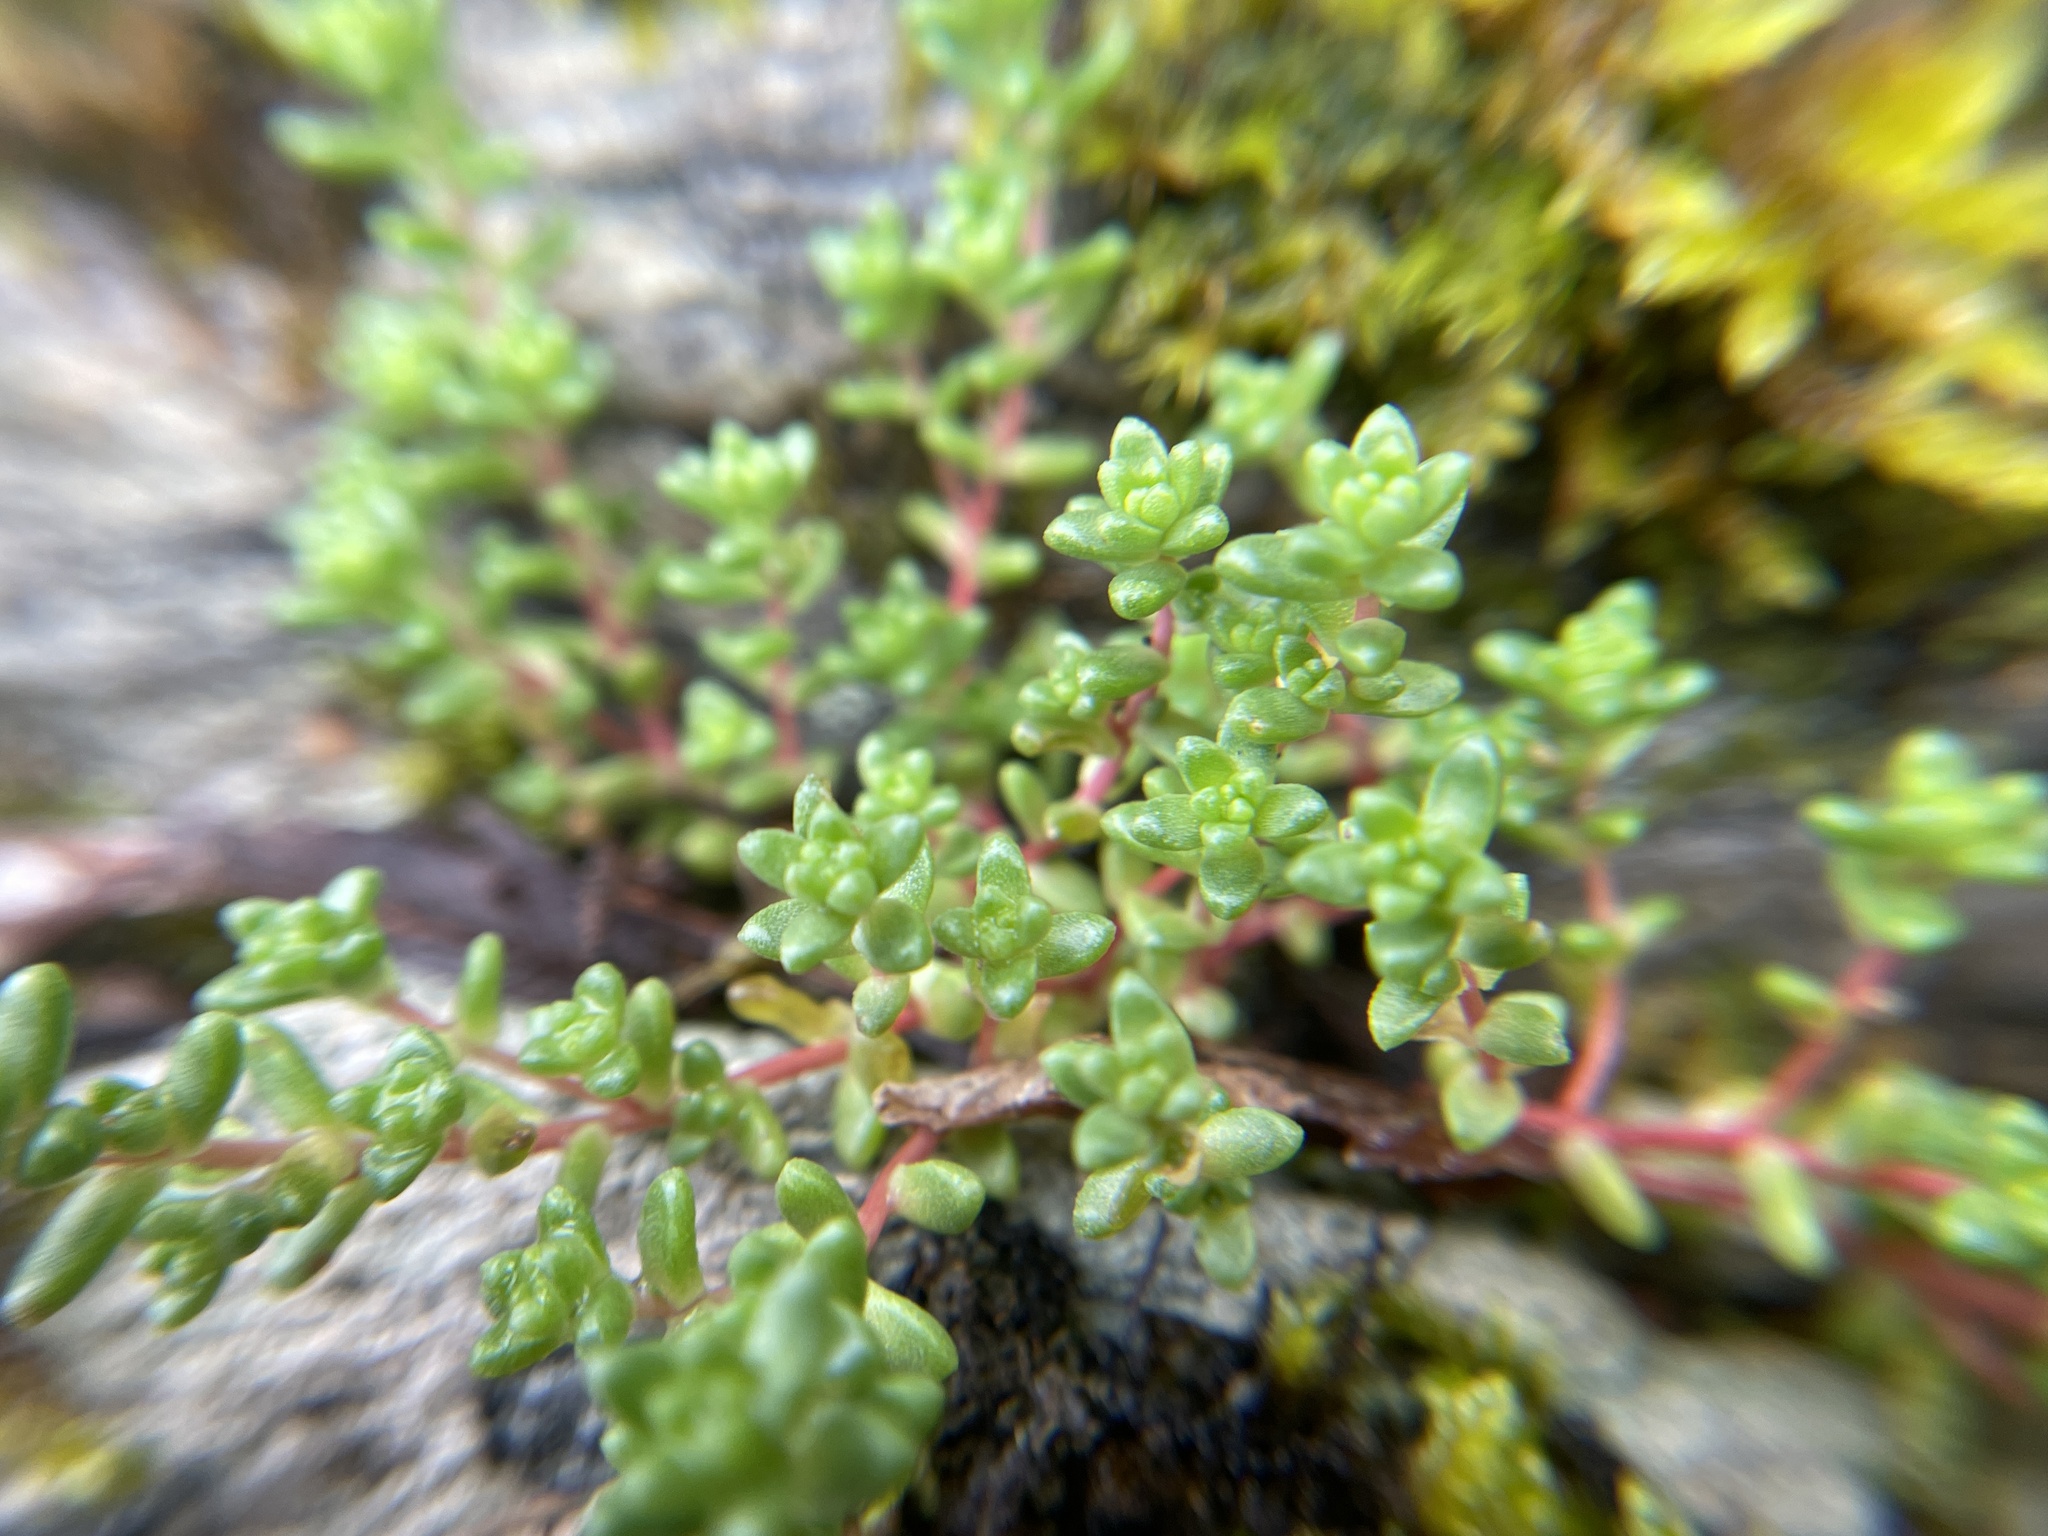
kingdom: Plantae
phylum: Tracheophyta
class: Magnoliopsida
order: Saxifragales
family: Crassulaceae
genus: Sedum
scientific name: Sedum anglicum
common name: English stonecrop
